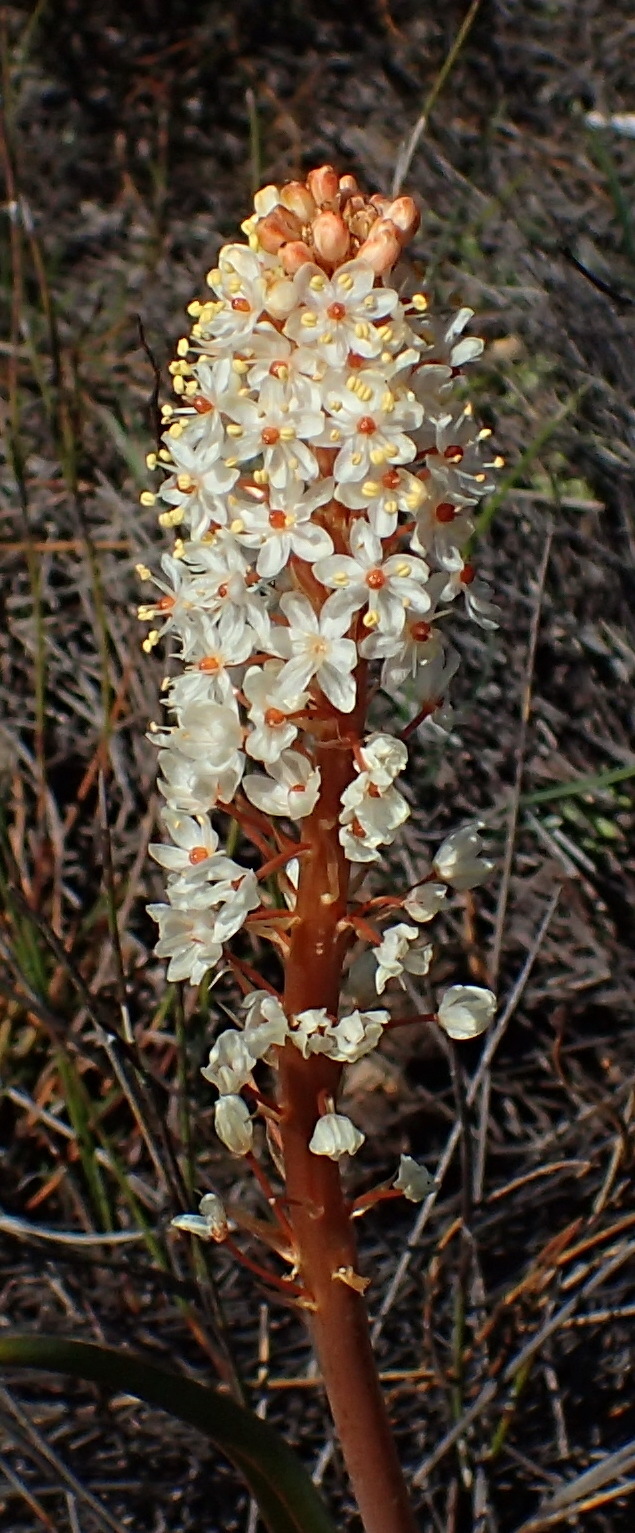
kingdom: Plantae
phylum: Tracheophyta
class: Liliopsida
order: Asparagales
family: Asphodelaceae
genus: Bulbinella
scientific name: Bulbinella latifolia
